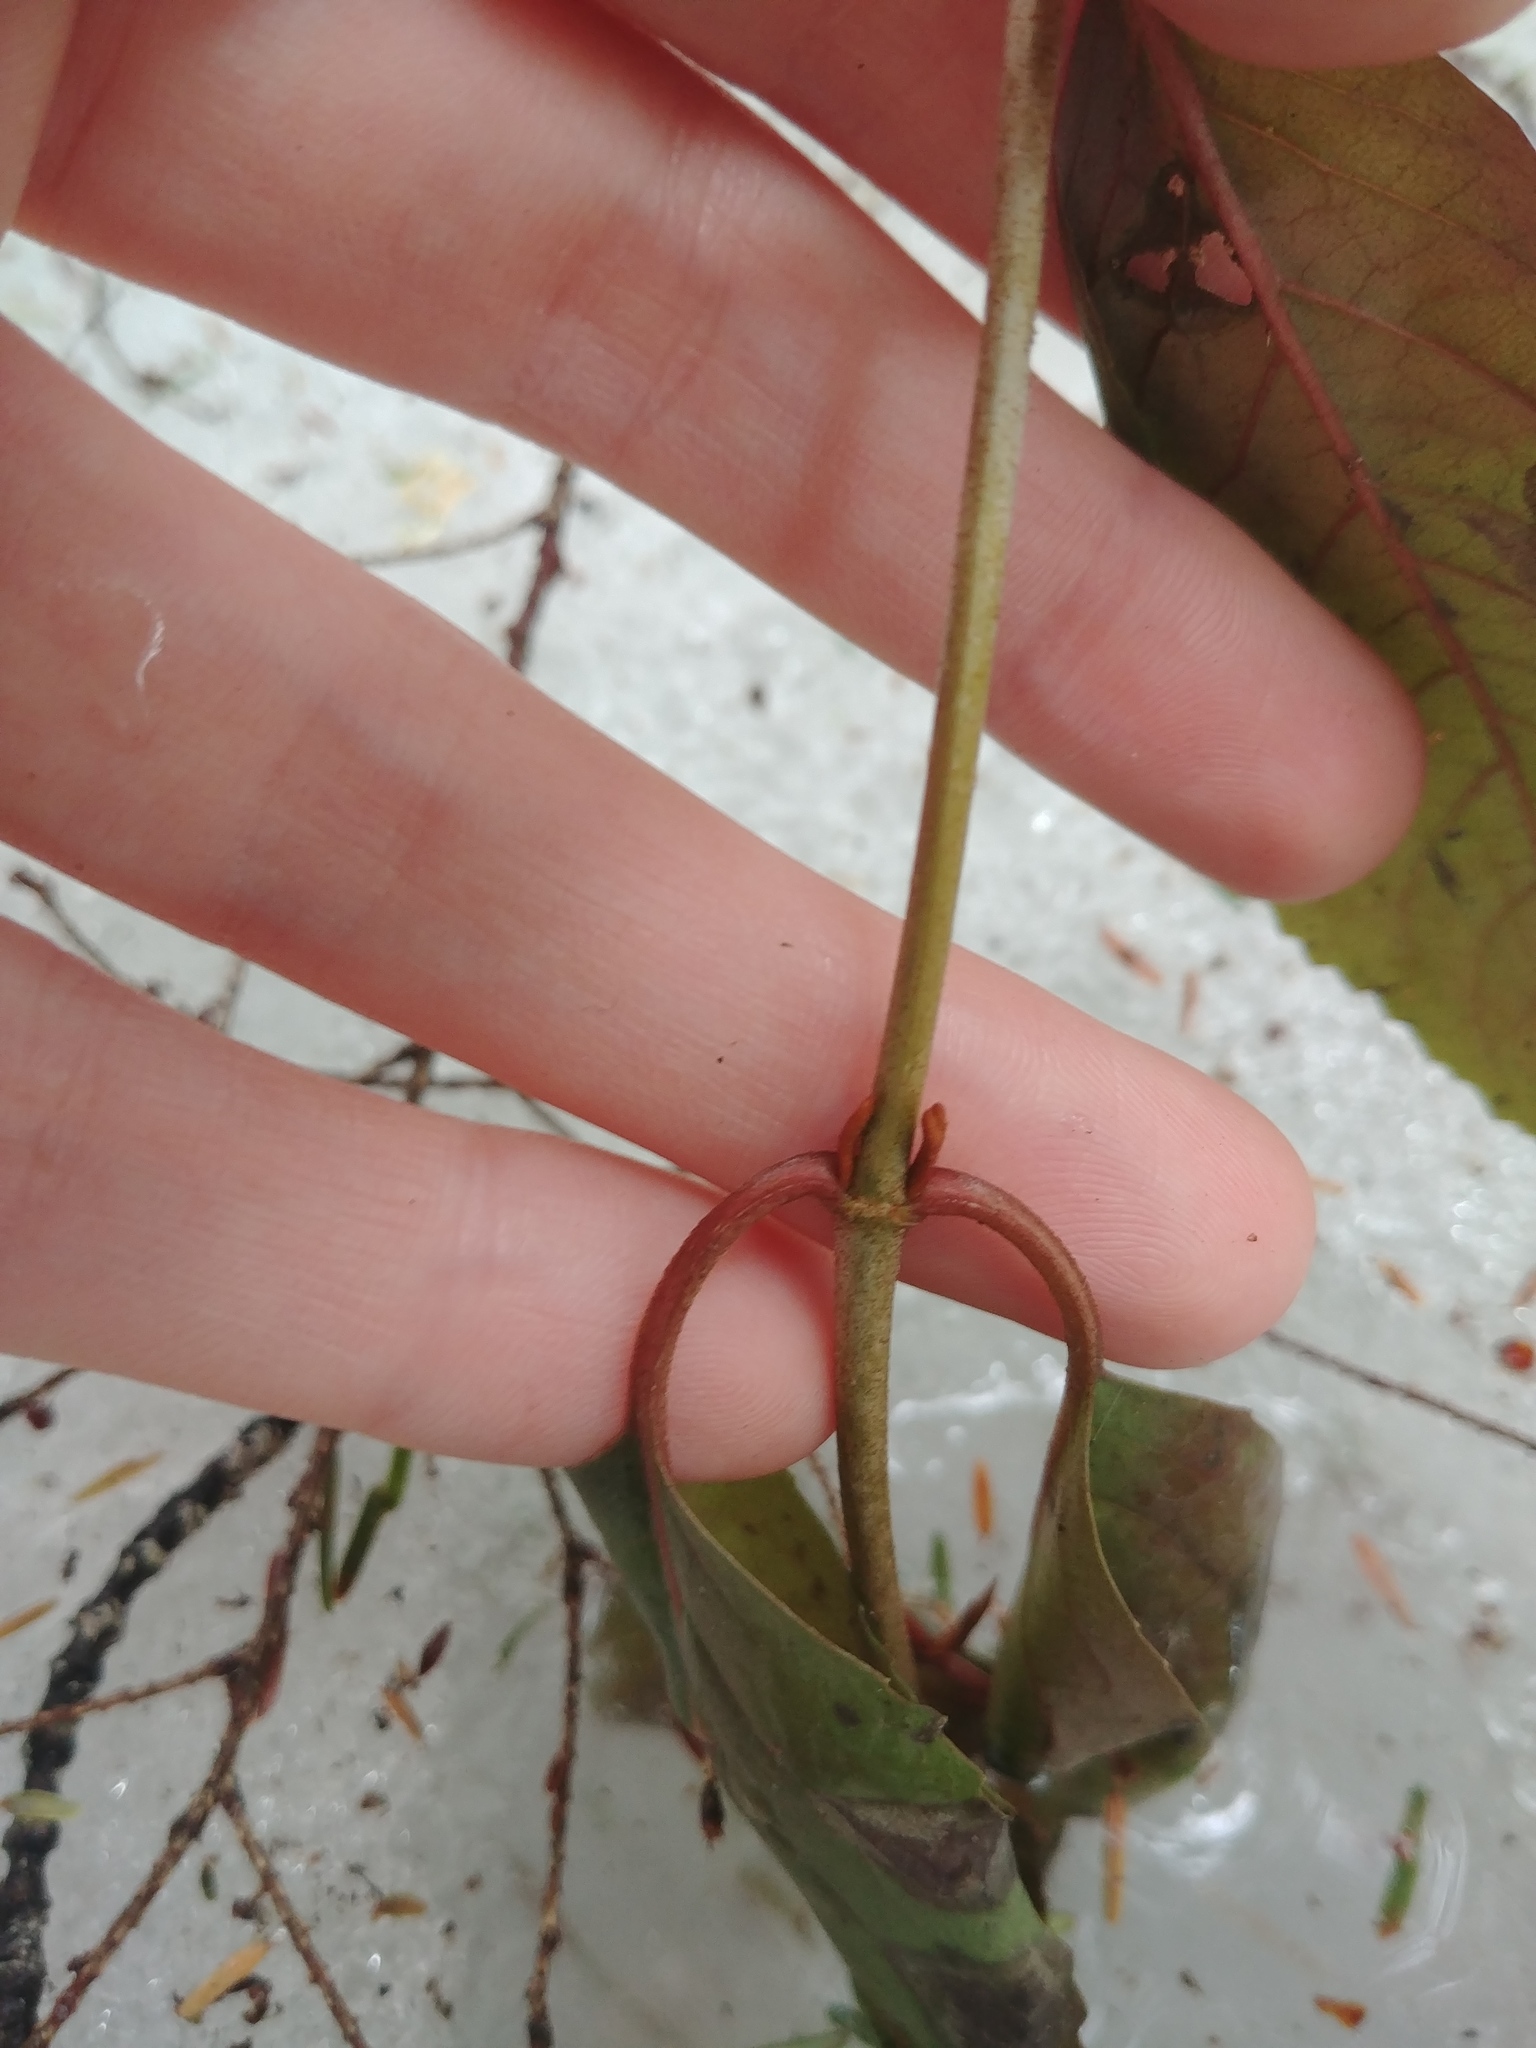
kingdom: Plantae
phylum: Tracheophyta
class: Magnoliopsida
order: Dipsacales
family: Viburnaceae
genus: Viburnum
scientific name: Viburnum cassinoides
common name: Swamp haw
